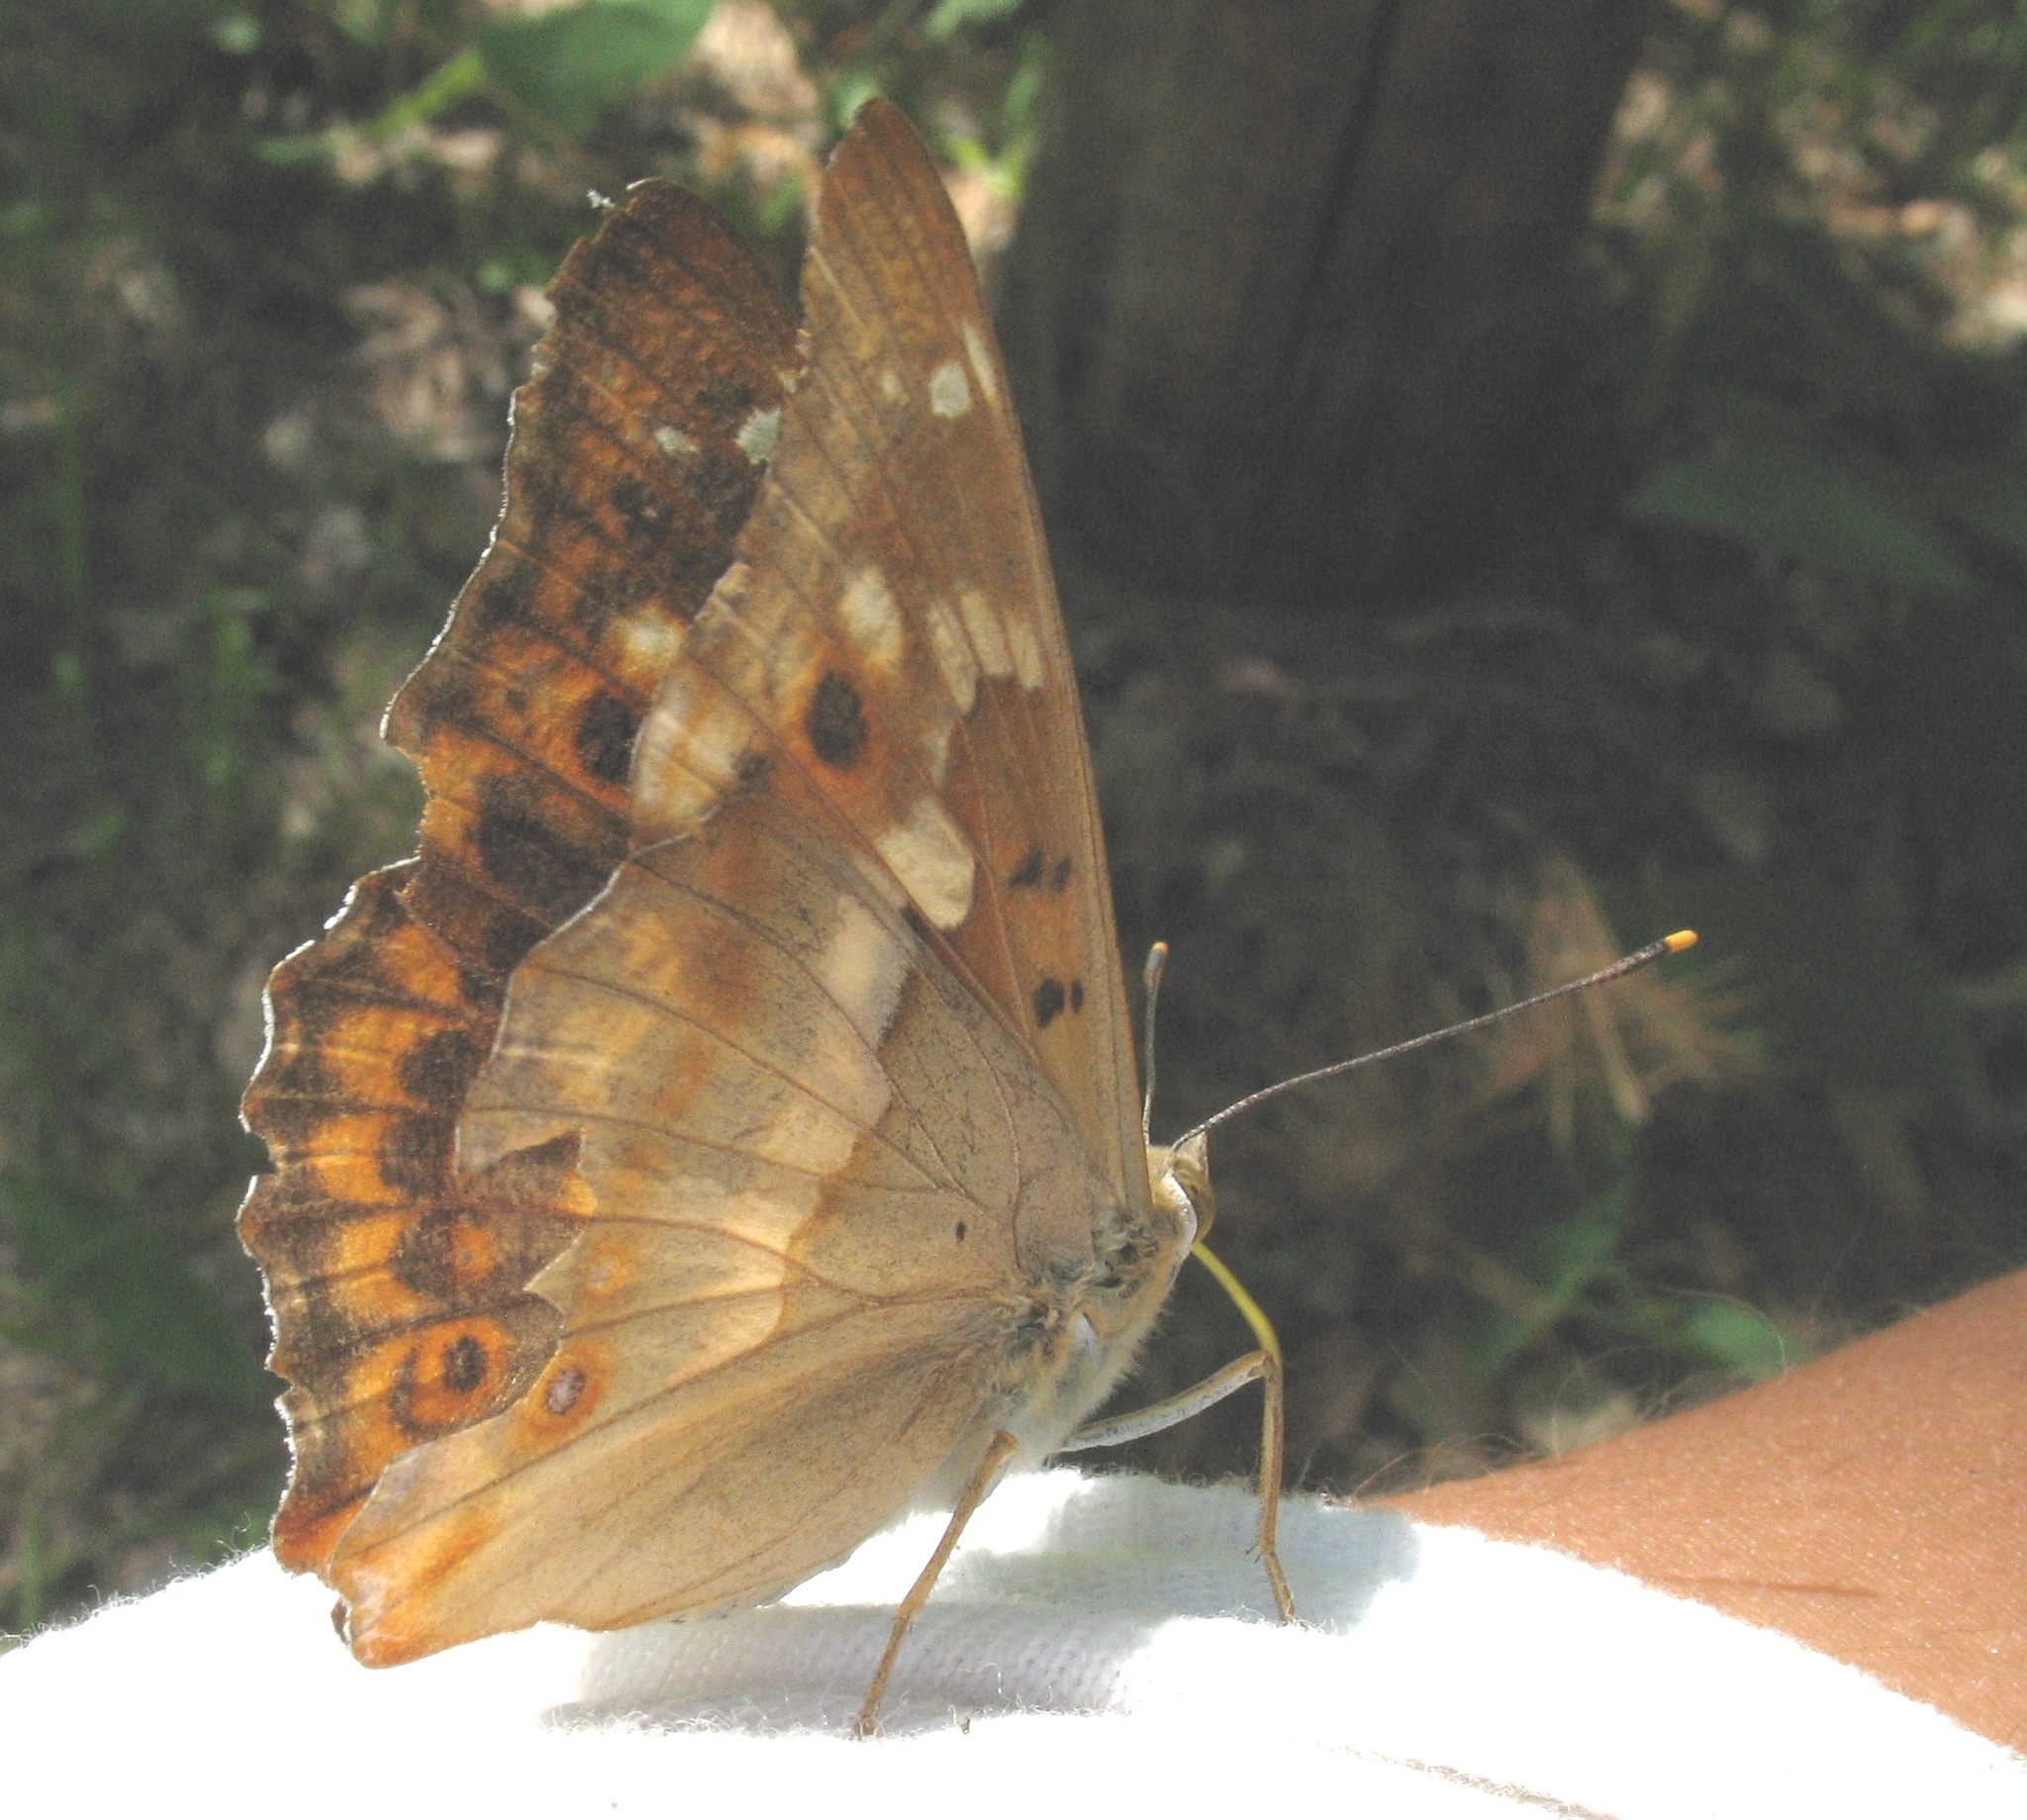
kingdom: Animalia
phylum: Arthropoda
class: Insecta
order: Lepidoptera
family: Nymphalidae
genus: Apatura
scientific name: Apatura ilia
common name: Lesser purple emperor
